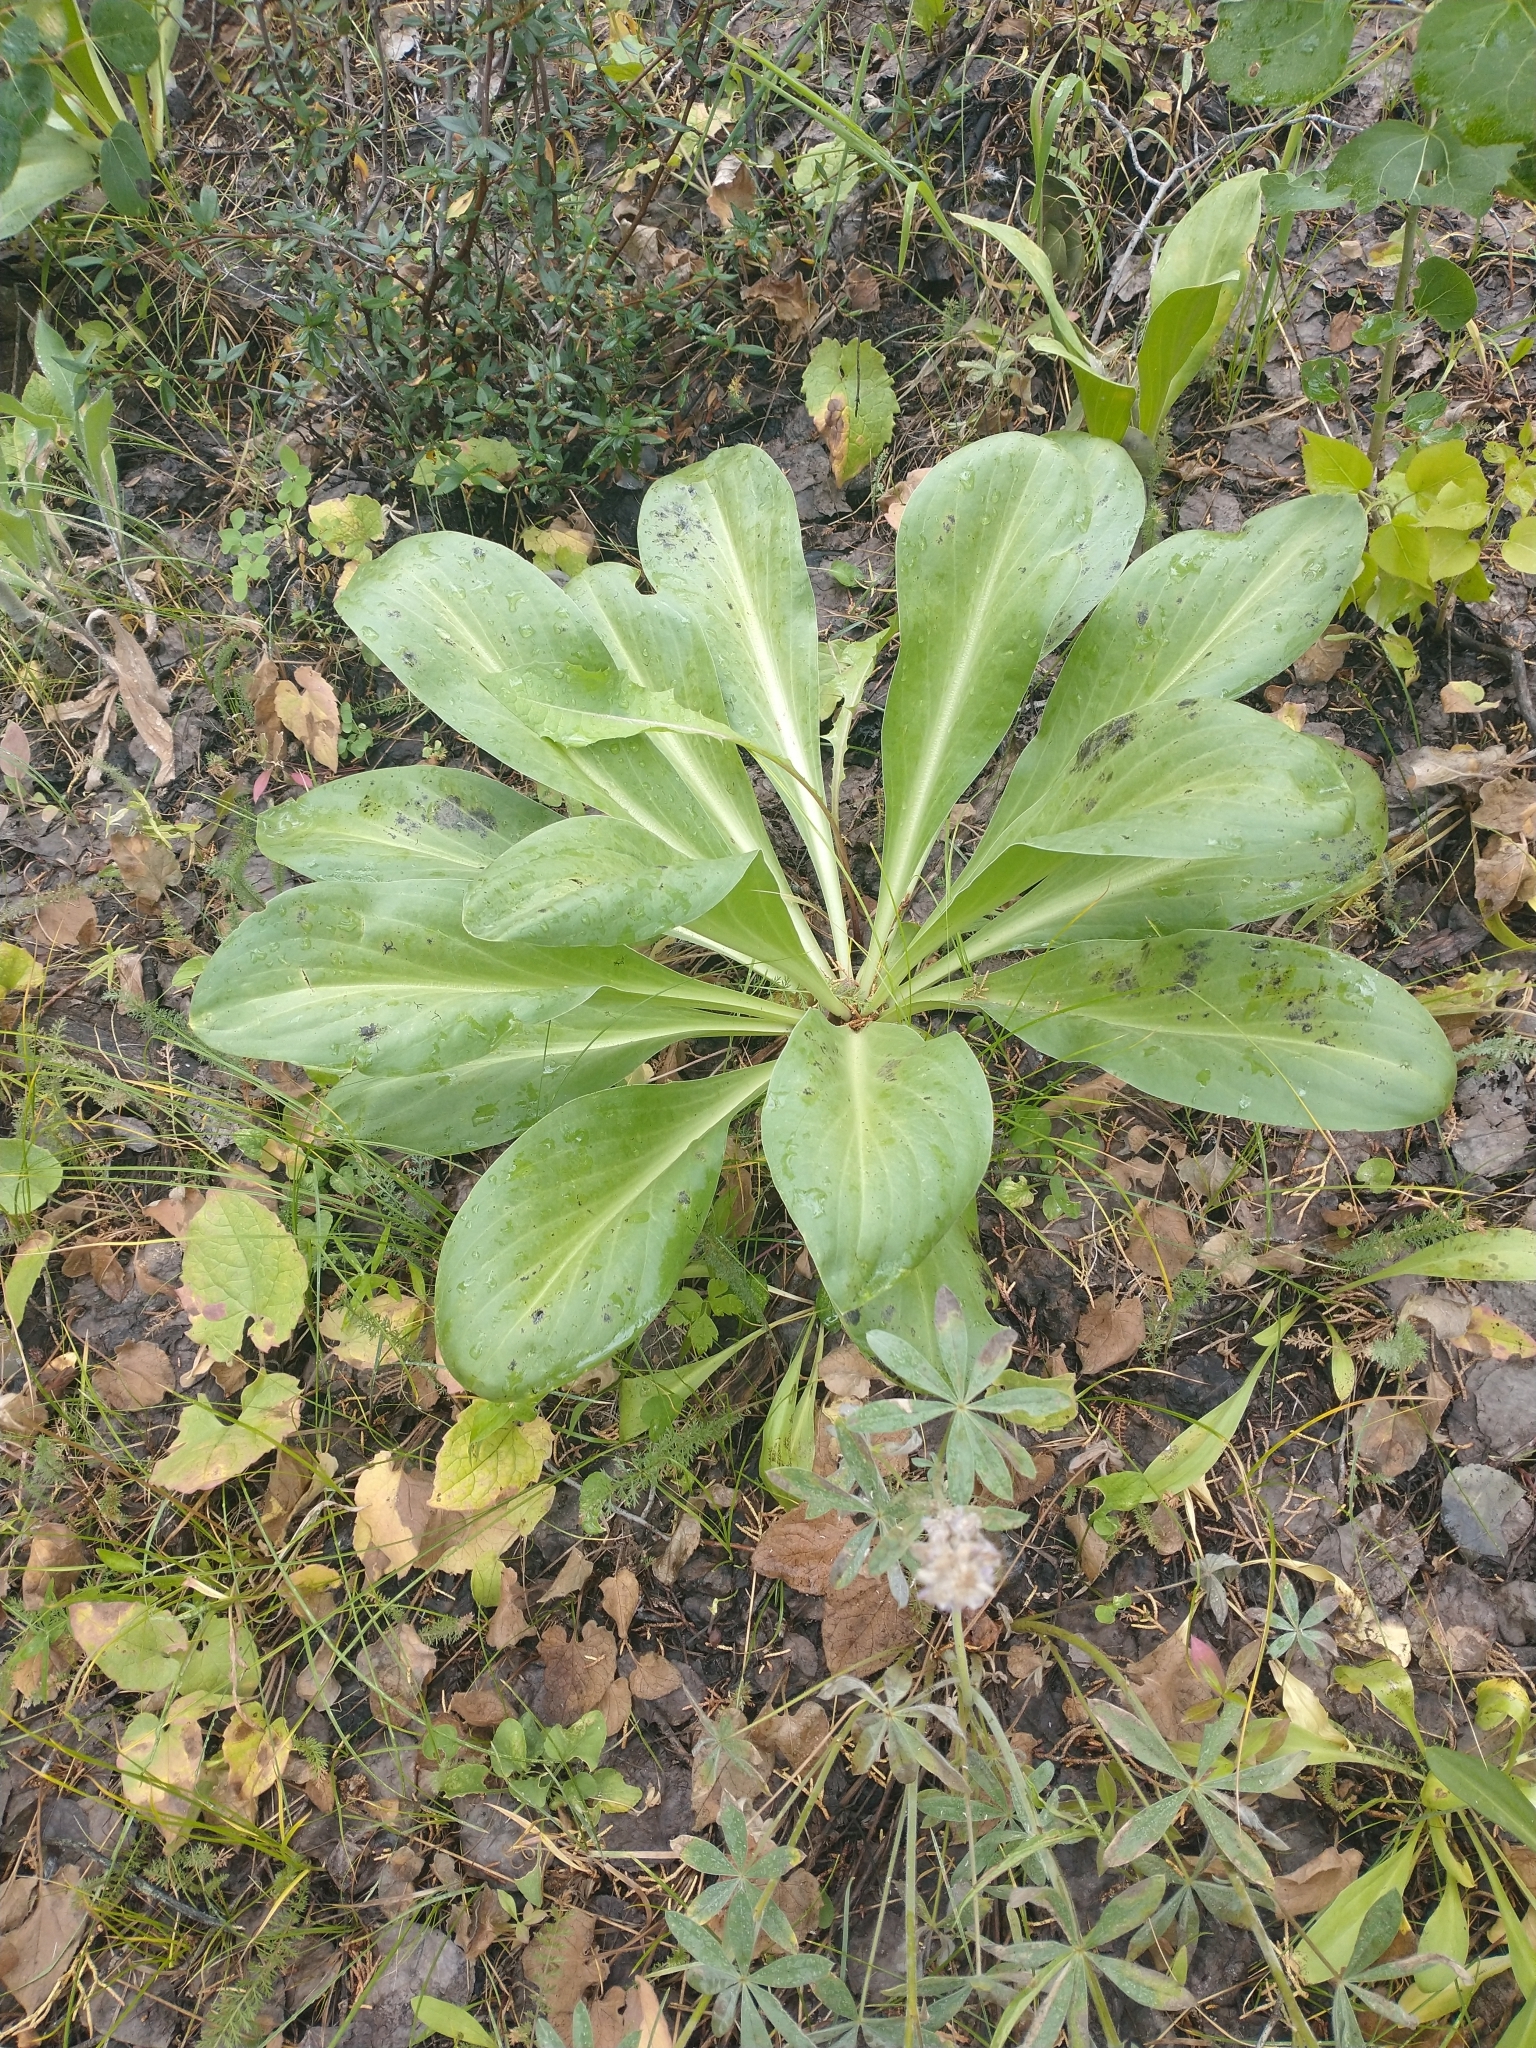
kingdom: Plantae
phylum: Tracheophyta
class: Magnoliopsida
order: Gentianales
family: Gentianaceae
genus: Frasera
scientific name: Frasera speciosa
